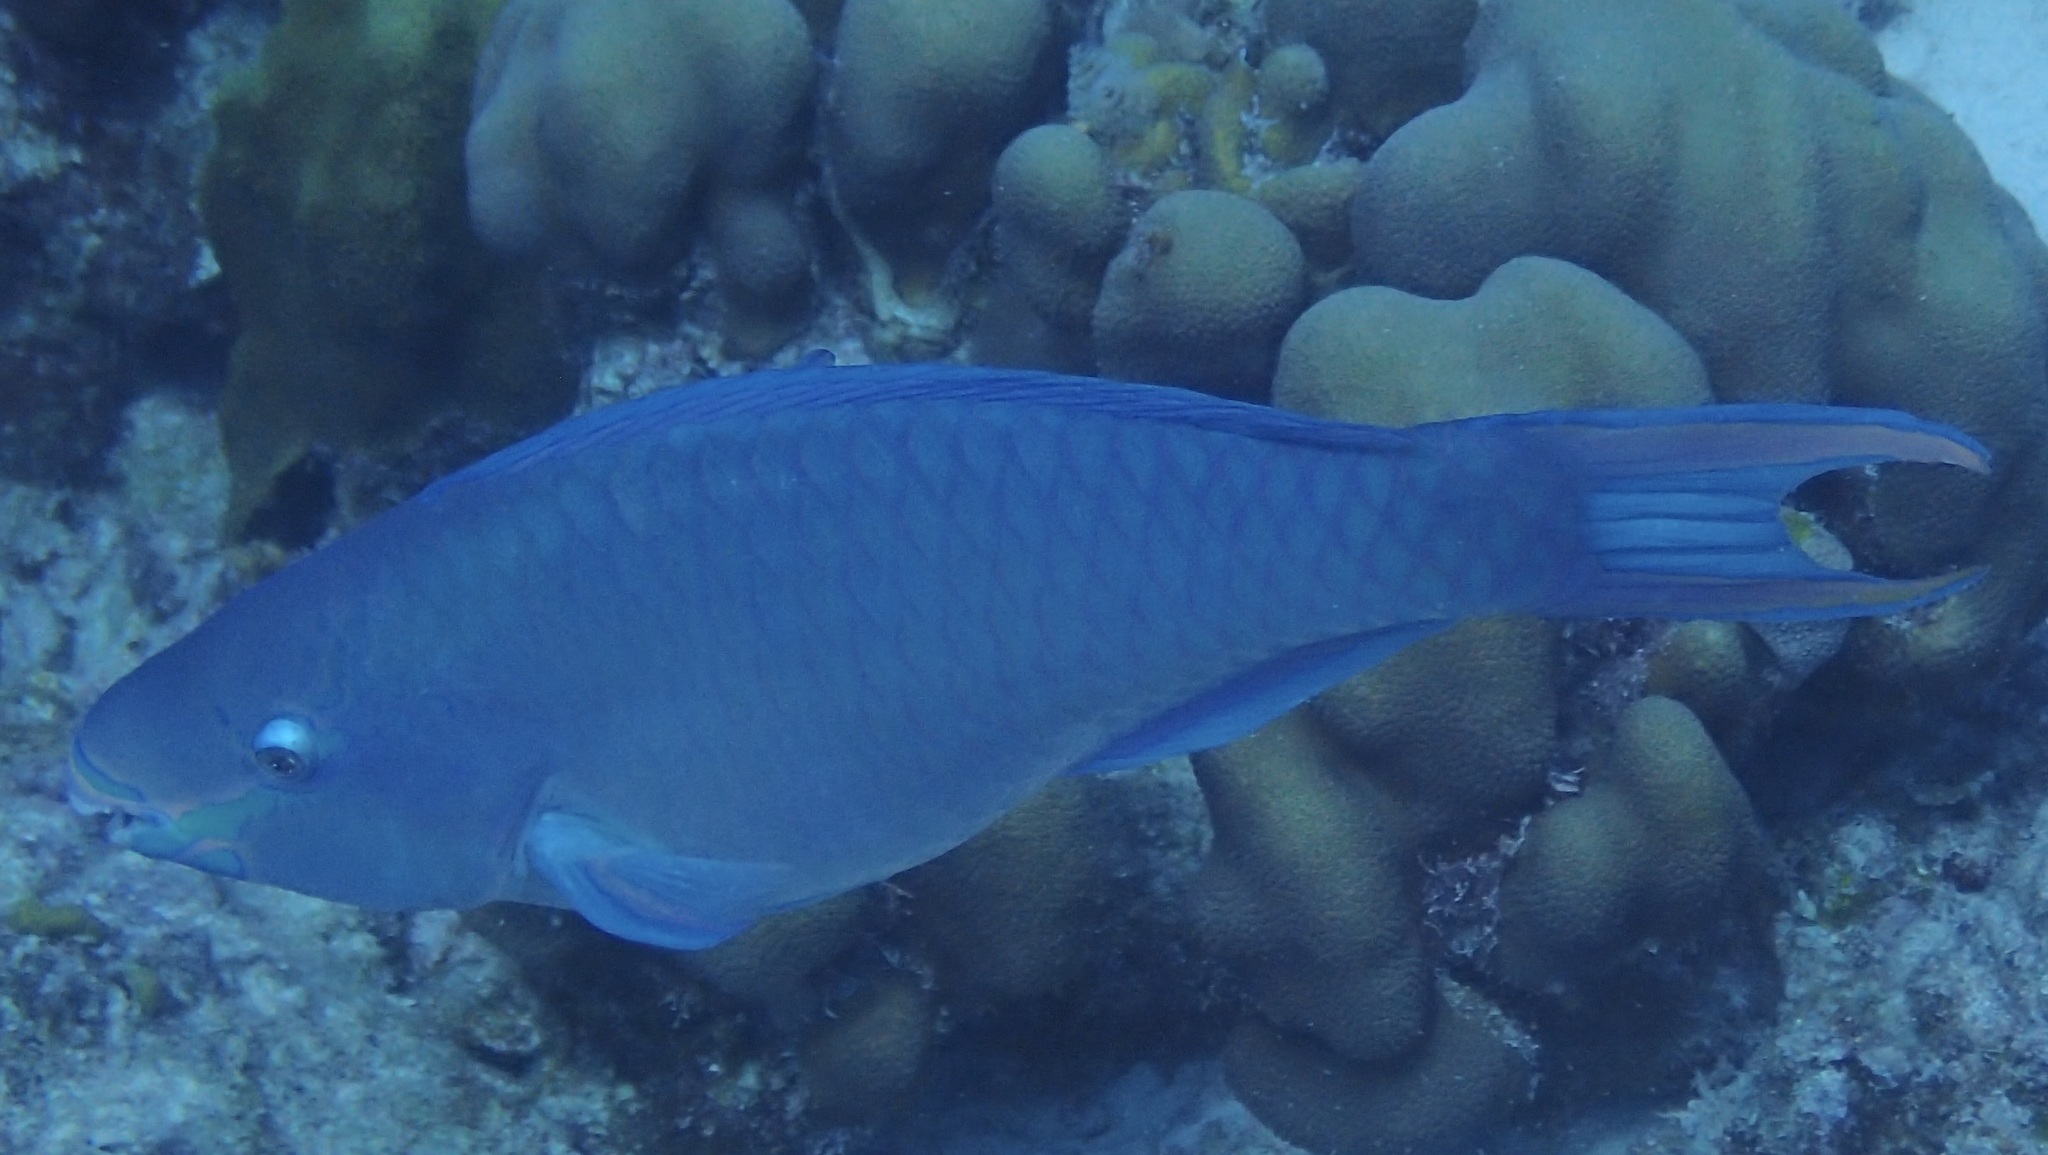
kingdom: Animalia
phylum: Chordata
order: Perciformes
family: Scaridae
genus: Scarus
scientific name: Scarus vetula
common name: Queen parrotfish
